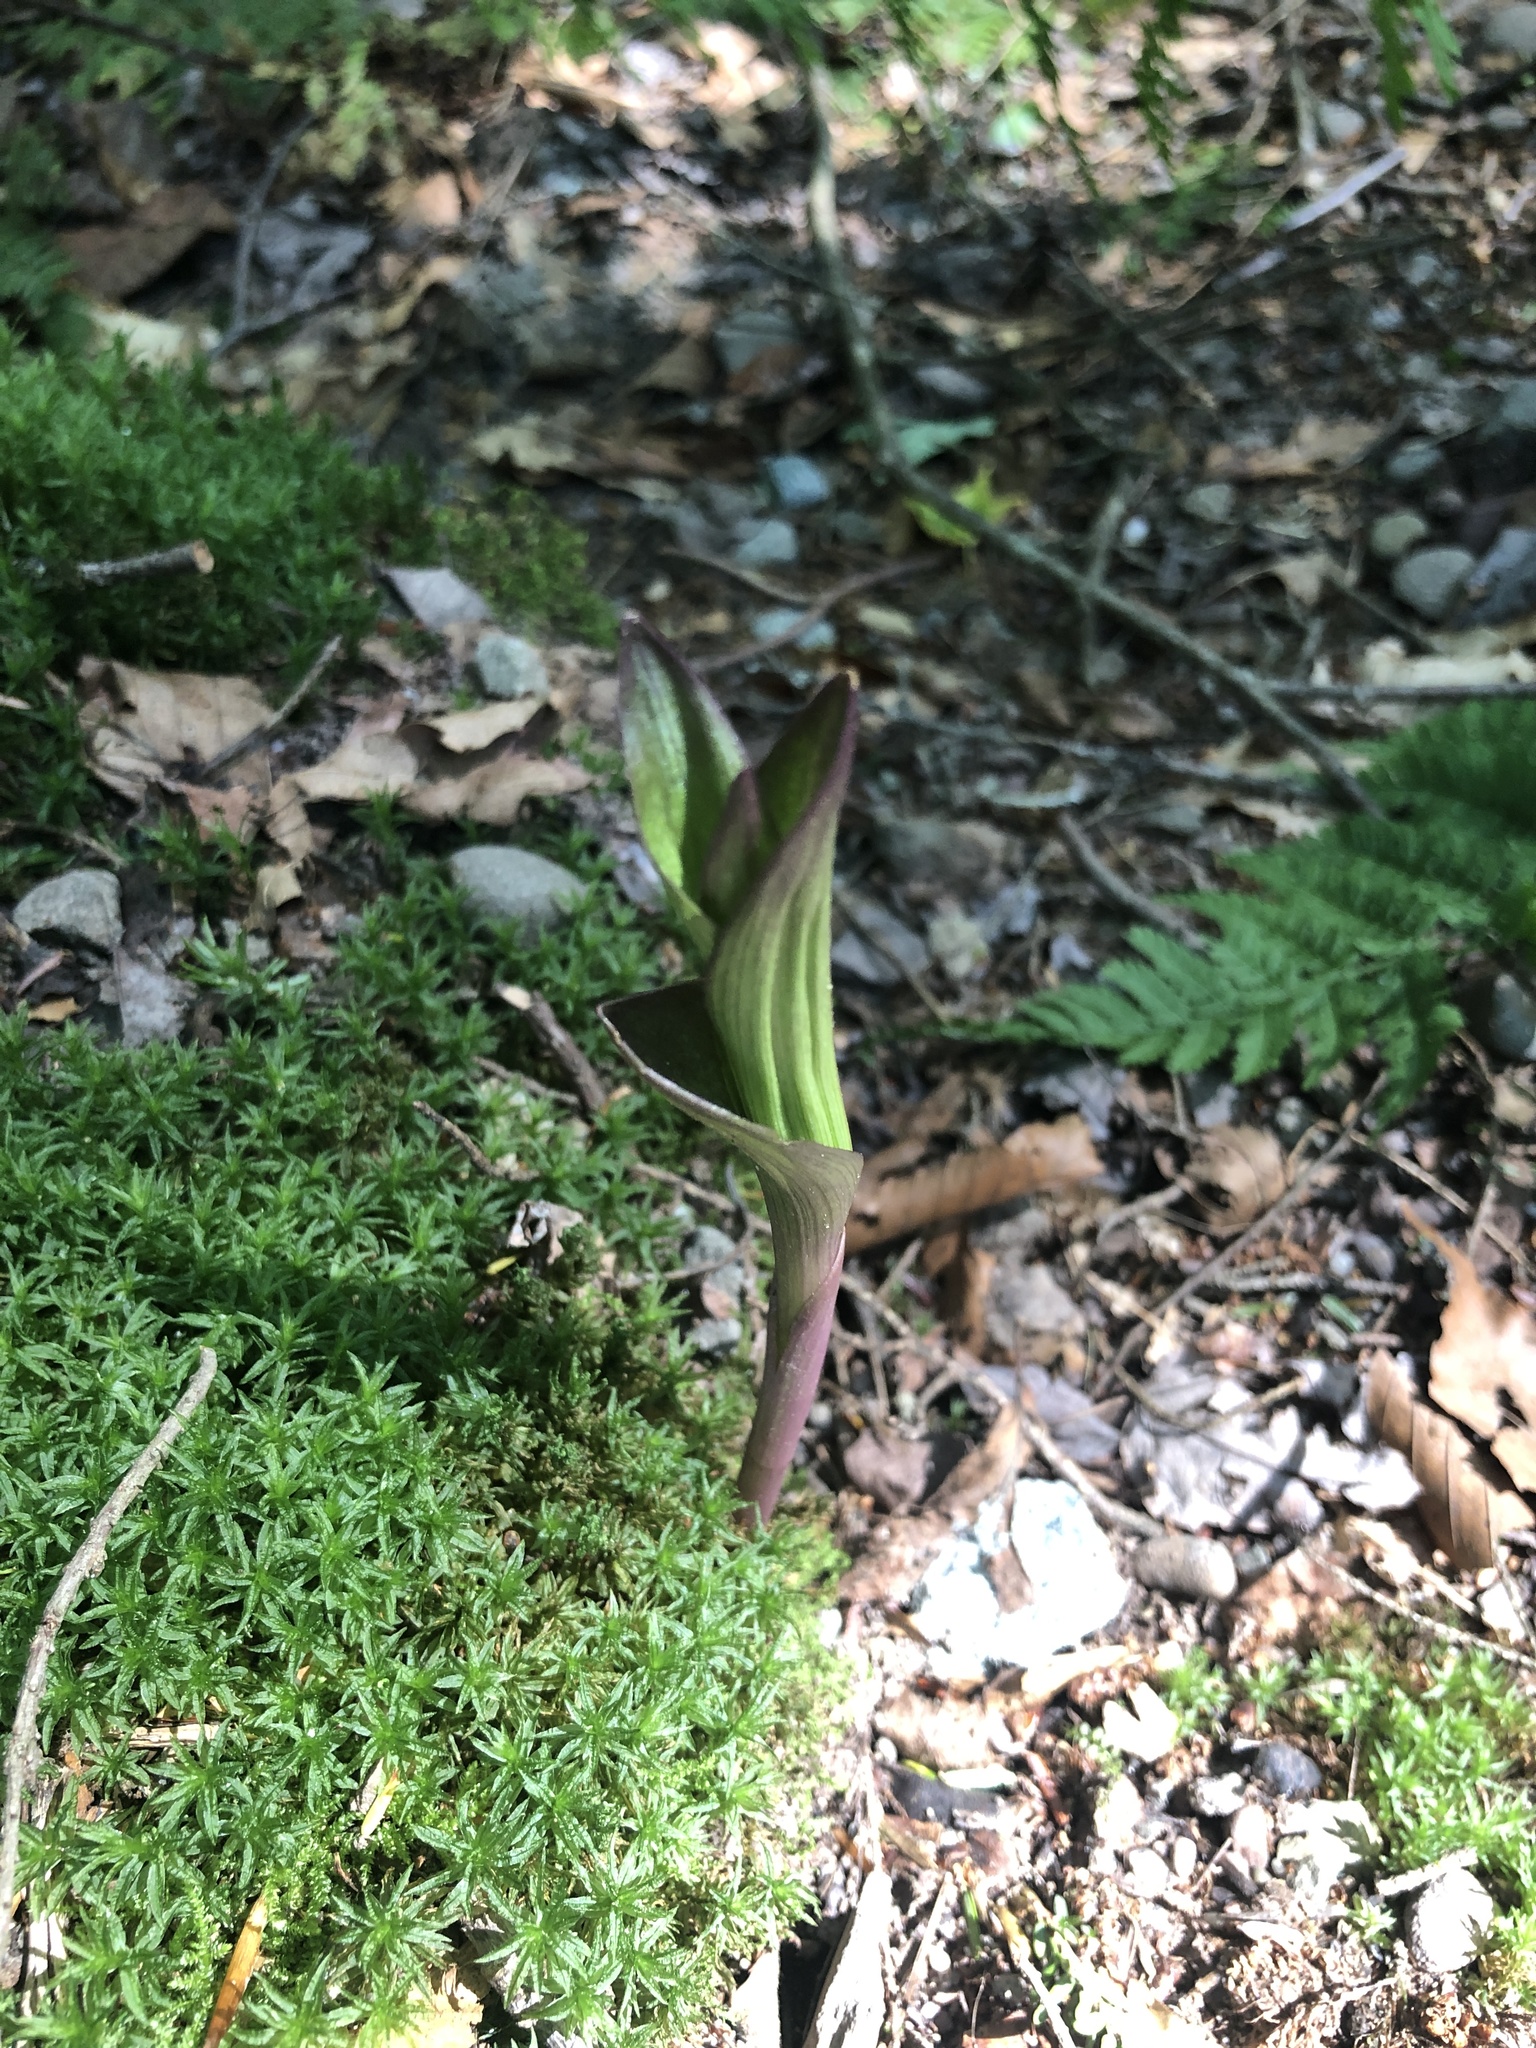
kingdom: Plantae
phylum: Tracheophyta
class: Liliopsida
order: Asparagales
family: Orchidaceae
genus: Epipactis
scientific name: Epipactis helleborine
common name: Broad-leaved helleborine
